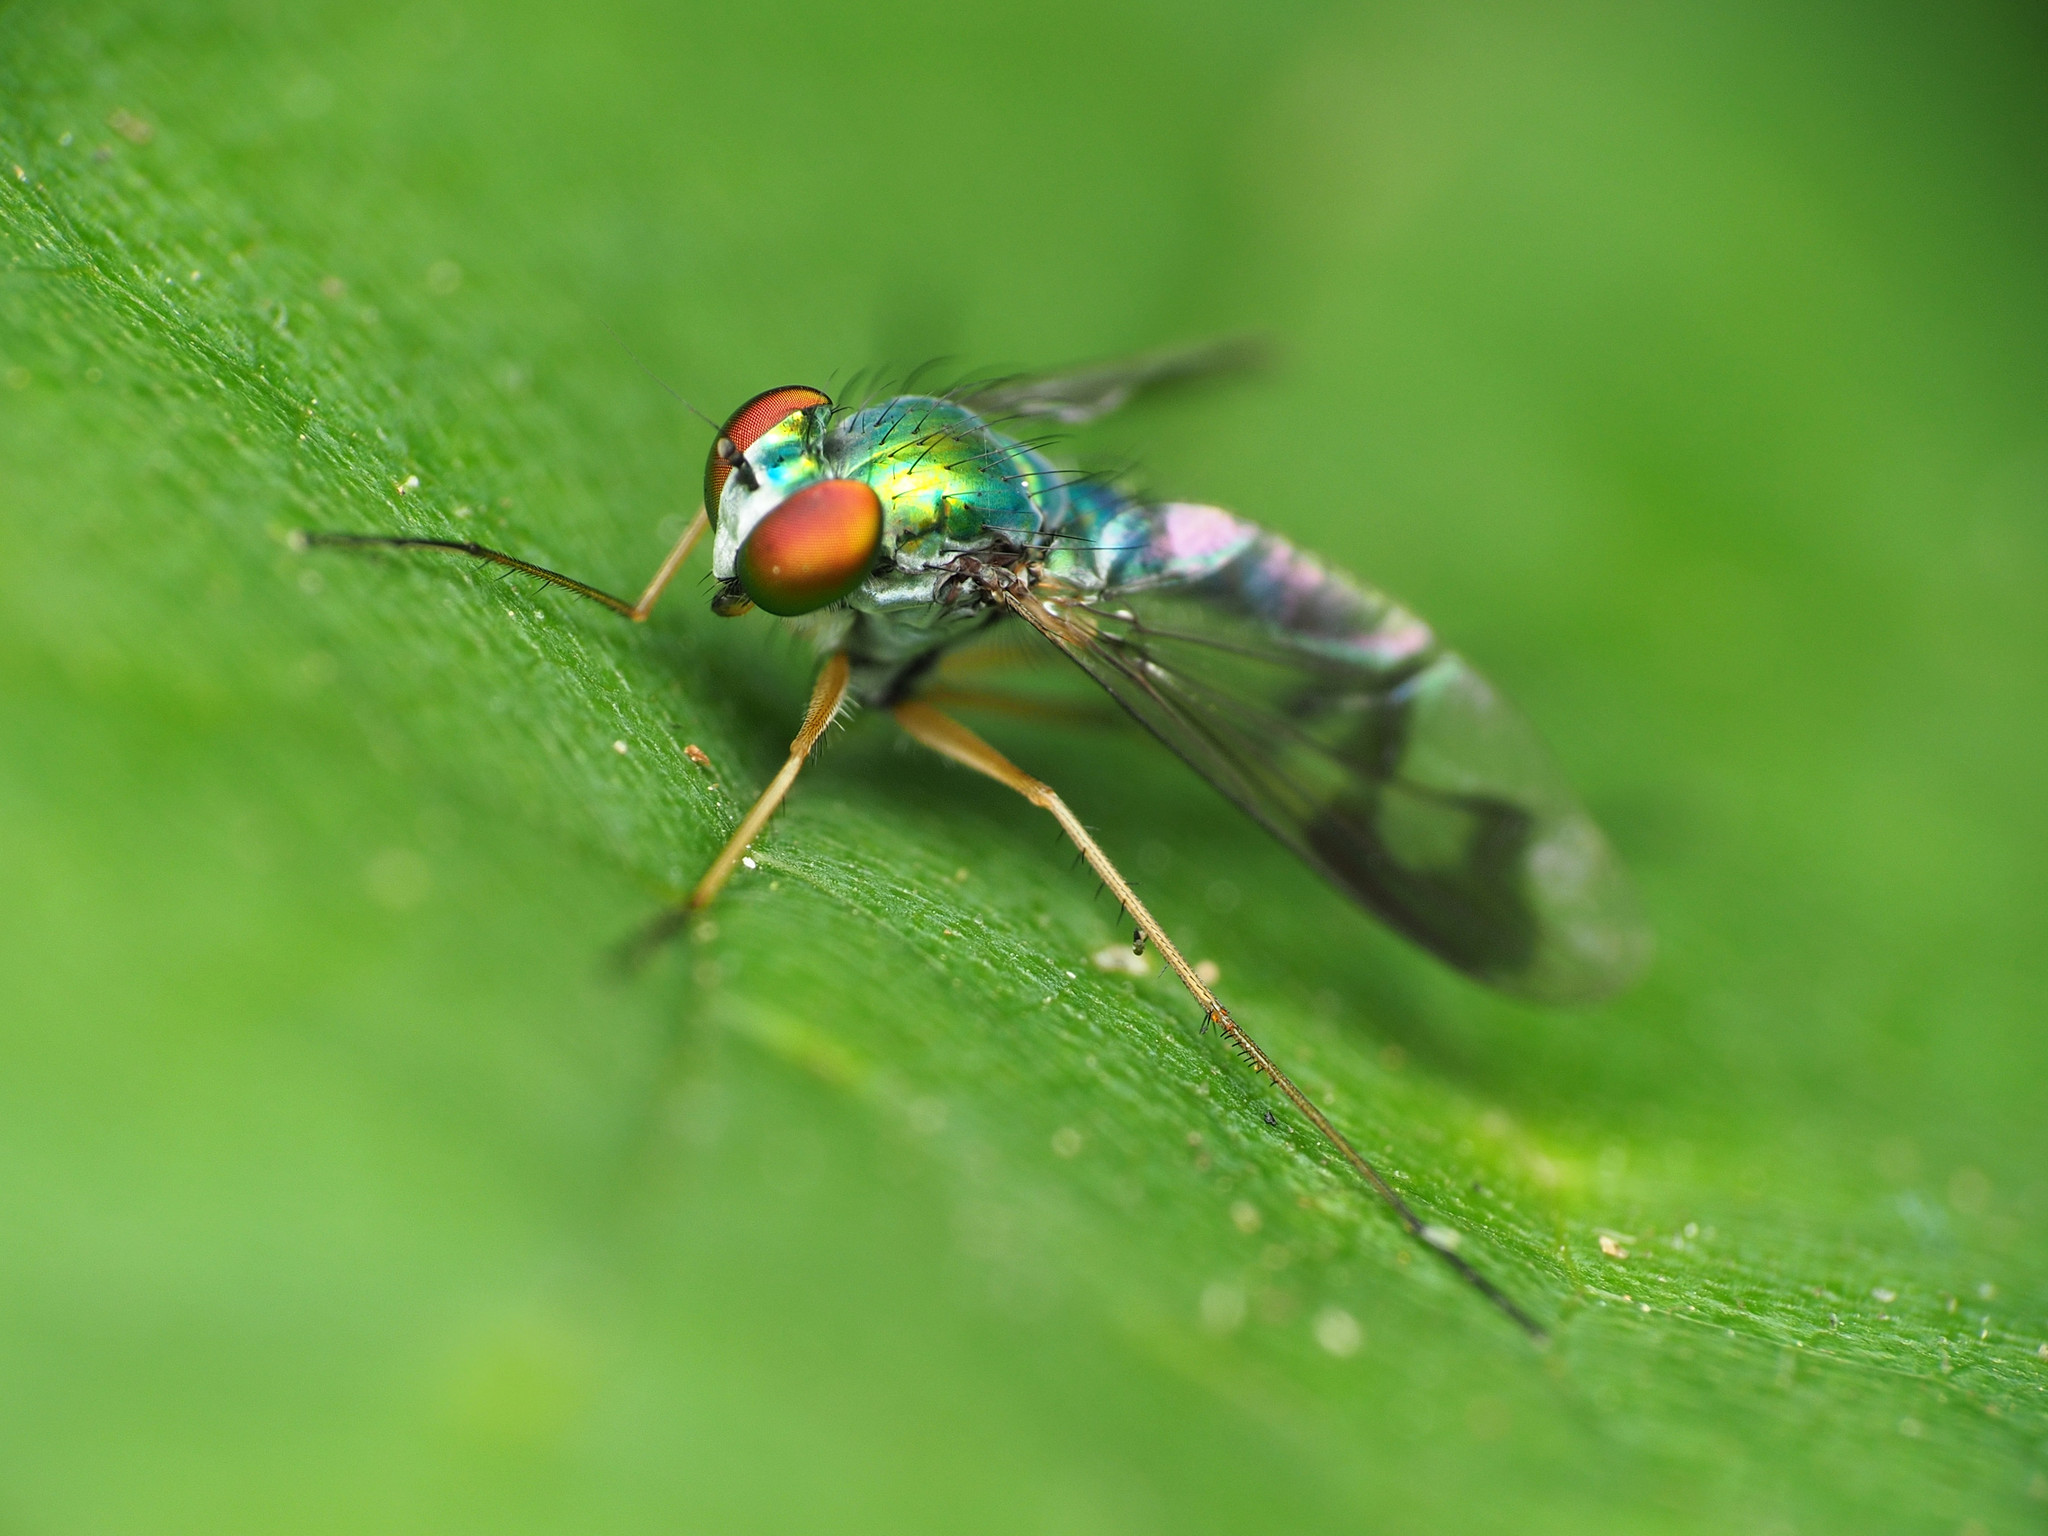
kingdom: Animalia
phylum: Arthropoda
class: Insecta
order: Diptera
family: Dolichopodidae
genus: Condylostylus
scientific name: Condylostylus brimleyi
